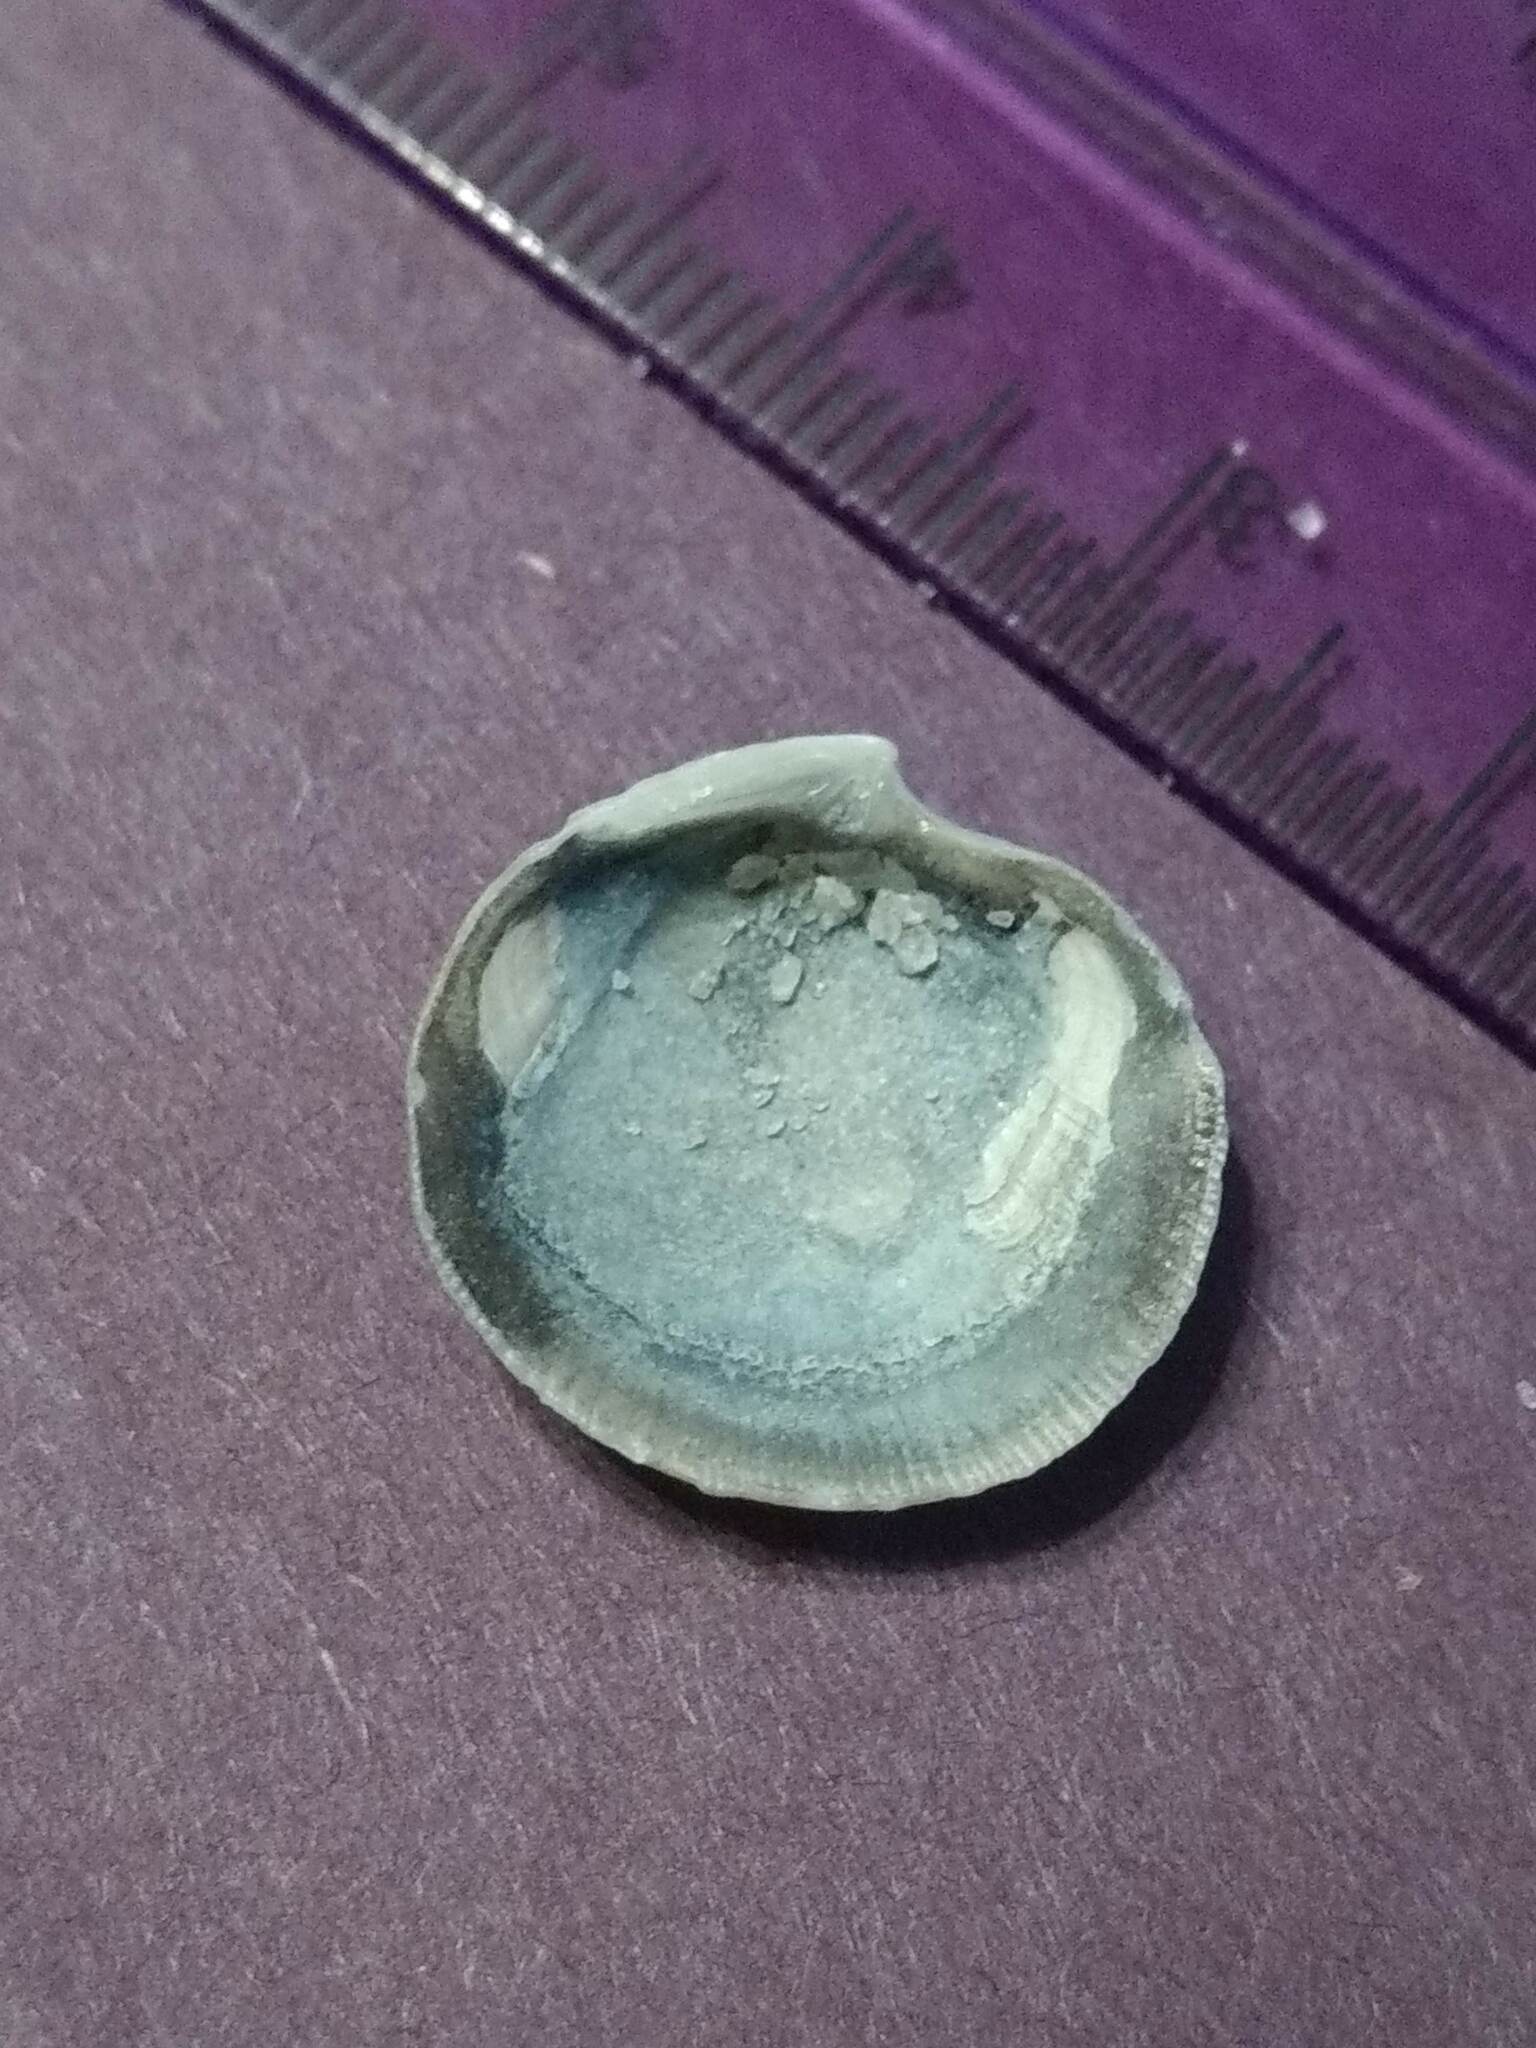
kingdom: Animalia
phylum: Mollusca
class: Bivalvia
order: Lucinida
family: Lucinidae
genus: Callucina
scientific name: Callucina keenae
